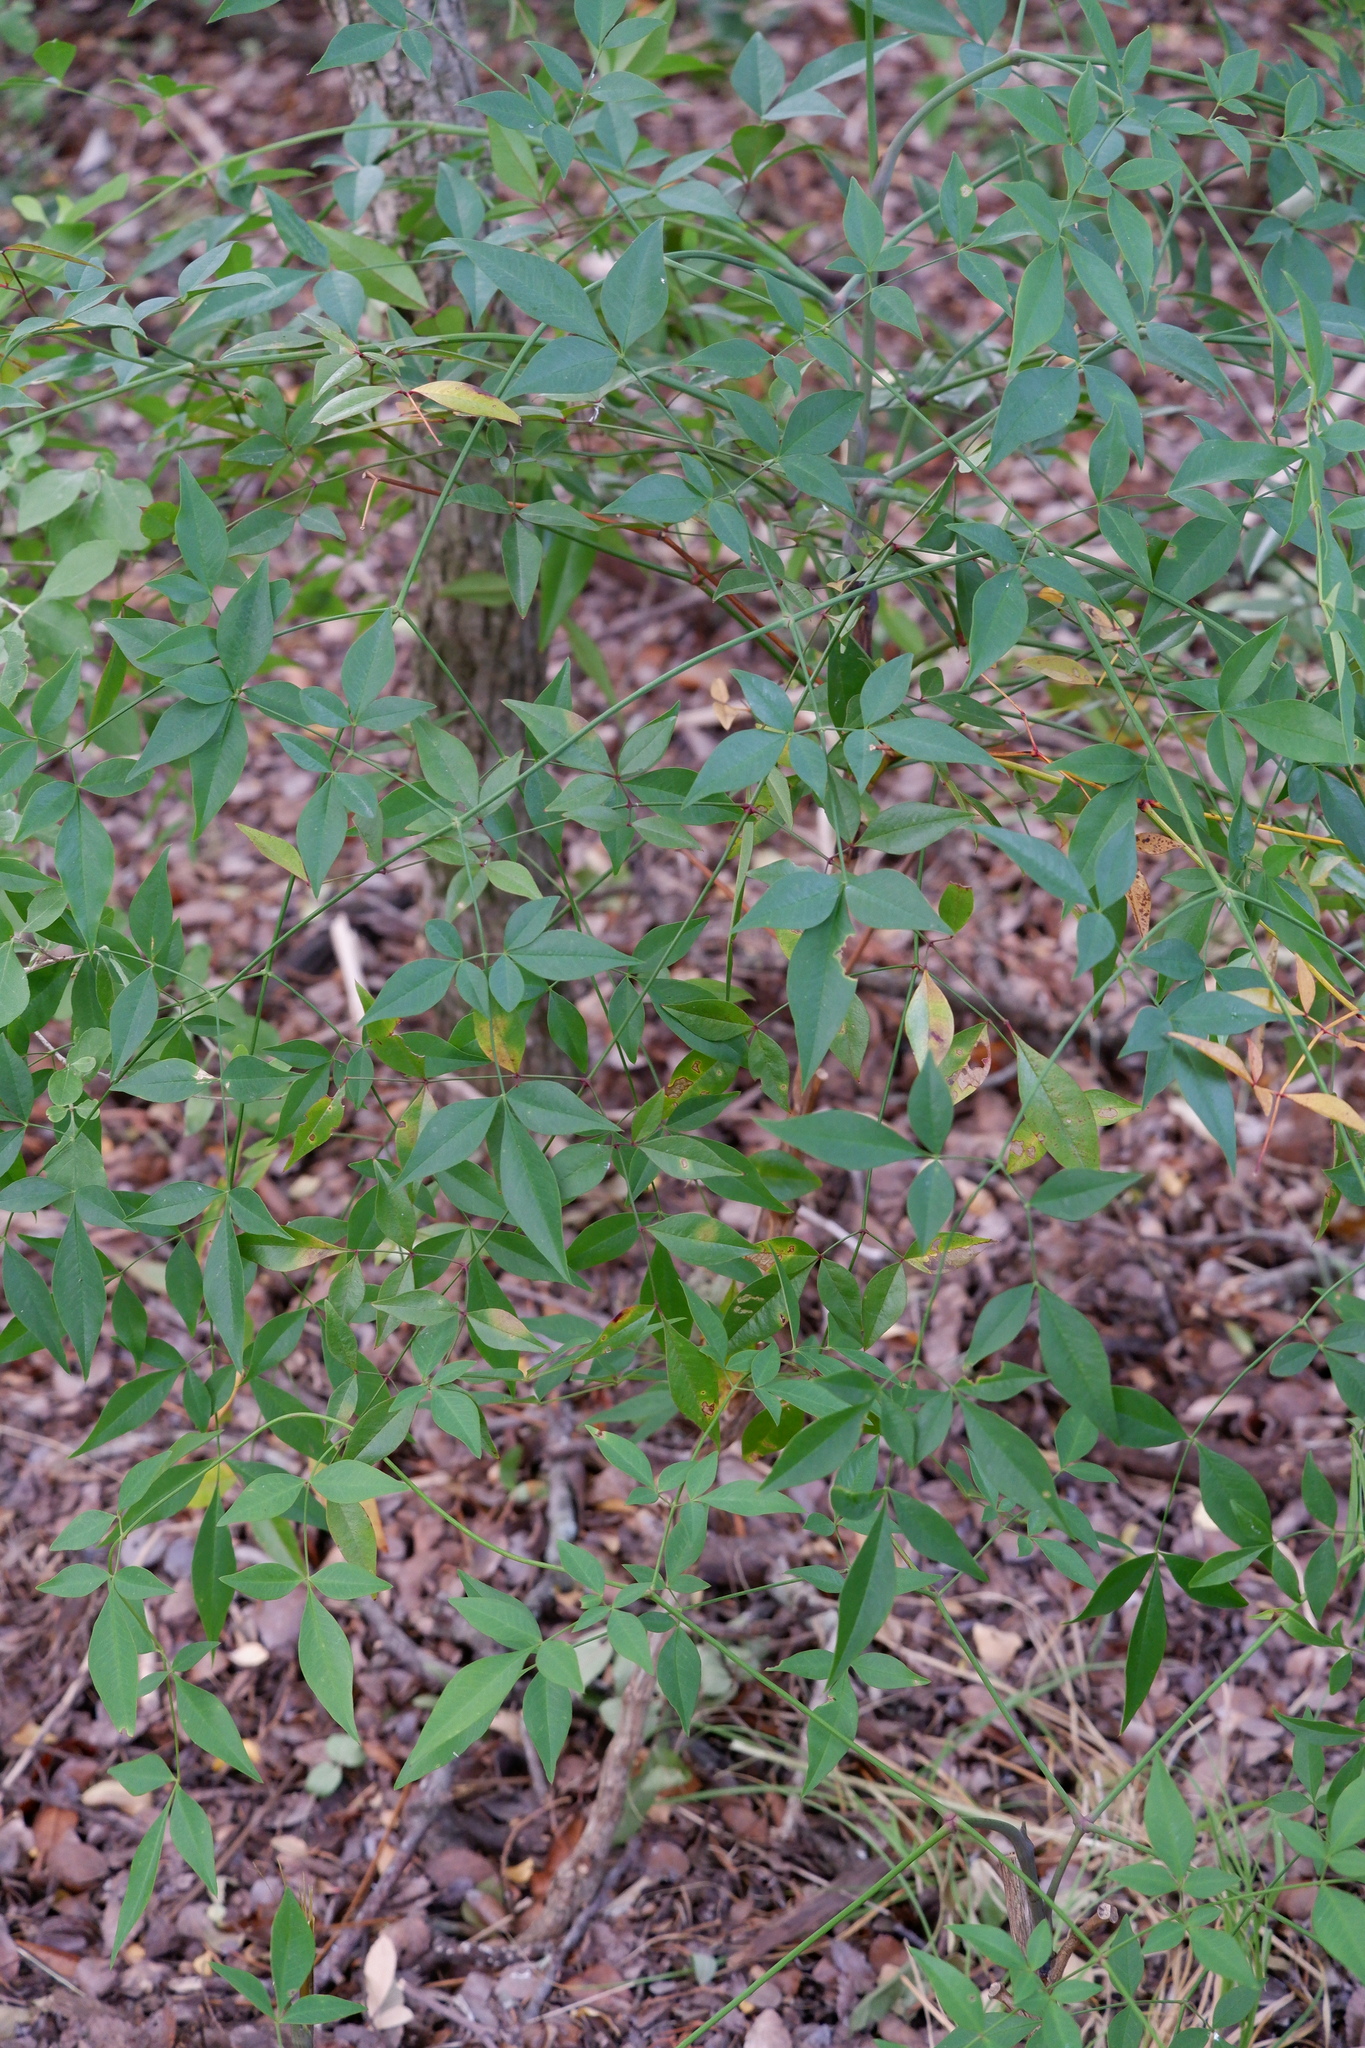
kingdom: Plantae
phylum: Tracheophyta
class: Magnoliopsida
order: Ranunculales
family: Berberidaceae
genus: Nandina
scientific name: Nandina domestica
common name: Sacred bamboo
